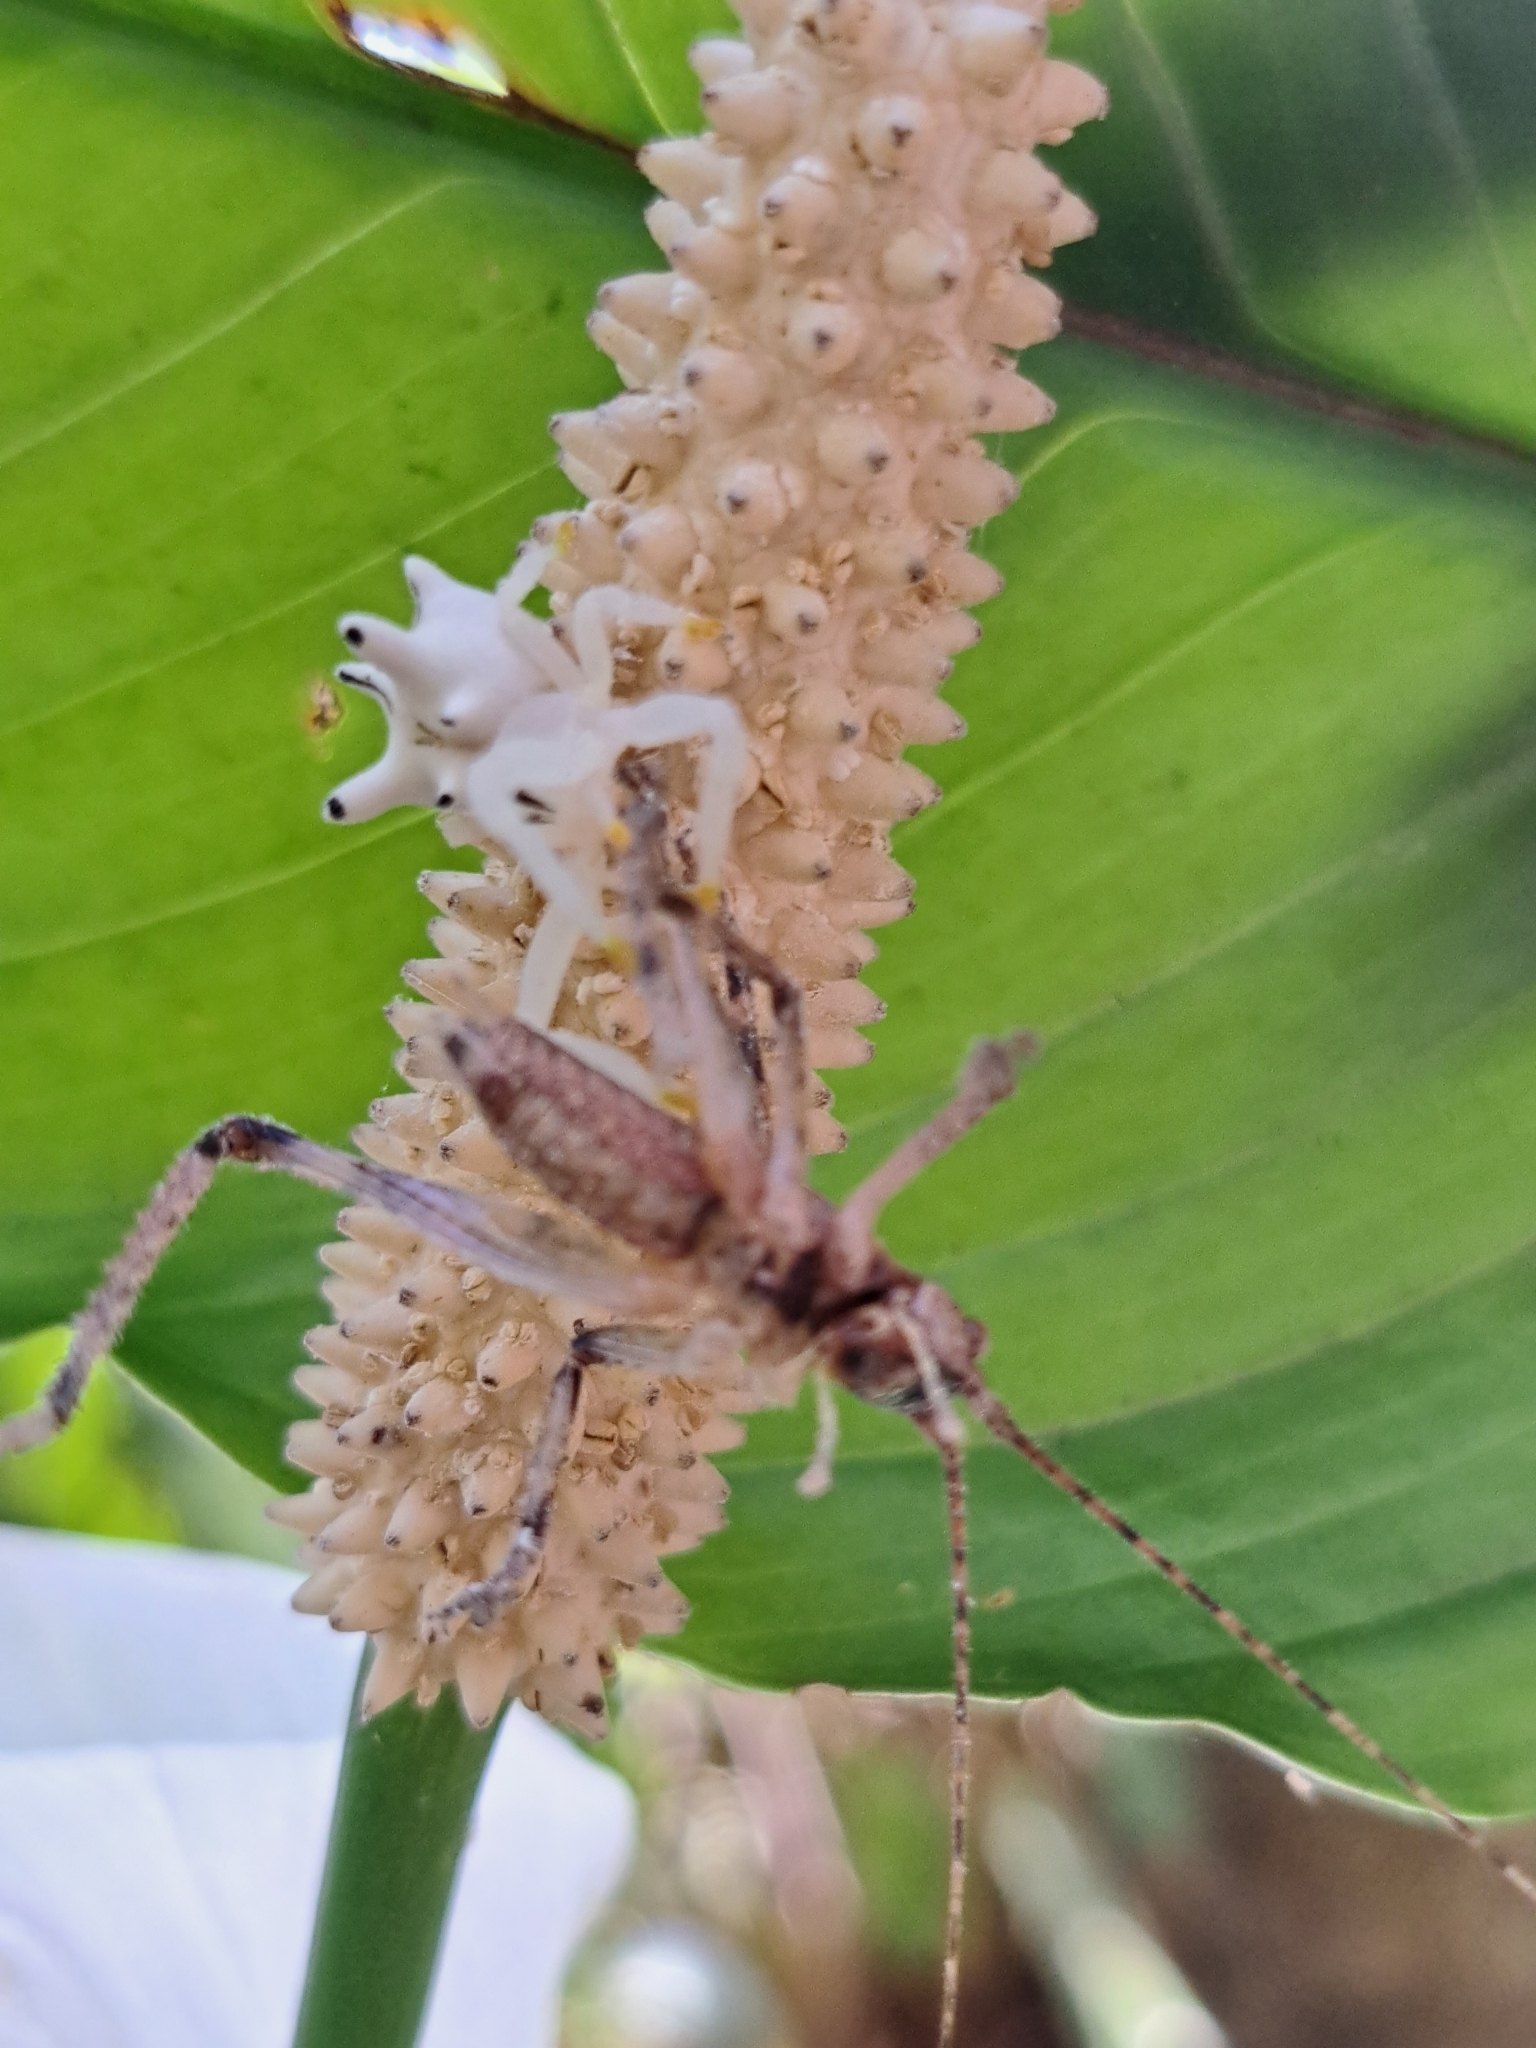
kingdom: Animalia
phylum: Arthropoda
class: Arachnida
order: Araneae
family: Thomisidae
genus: Epicadus
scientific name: Epicadus heterogaster
